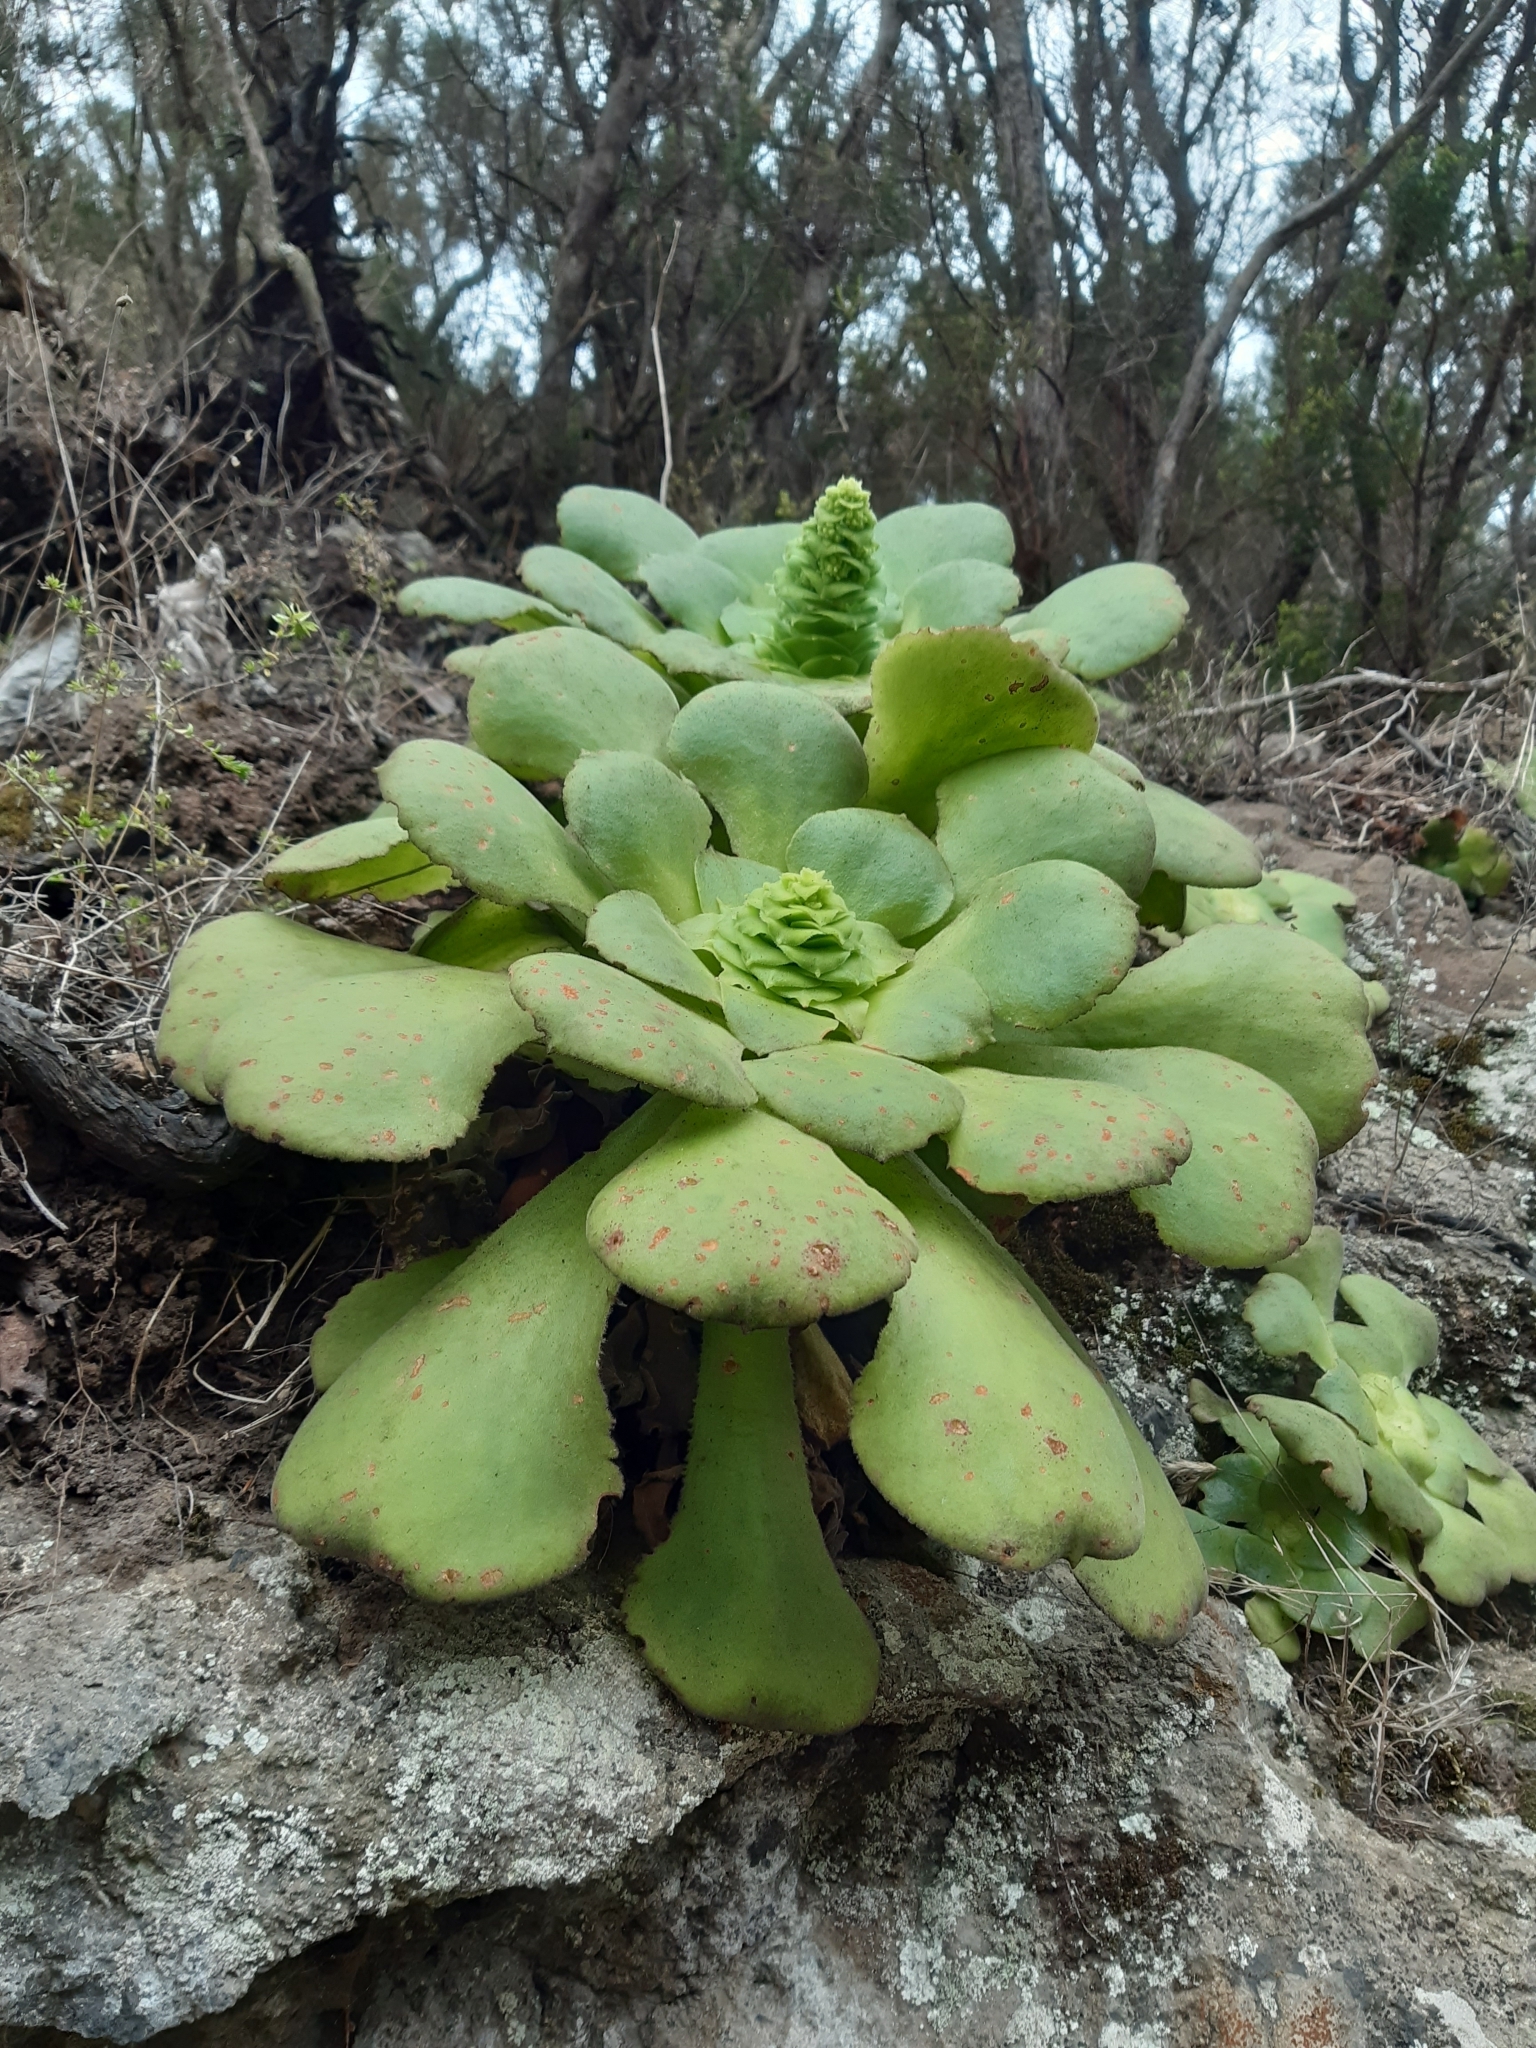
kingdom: Plantae
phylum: Tracheophyta
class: Magnoliopsida
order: Saxifragales
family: Crassulaceae
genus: Aeonium
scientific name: Aeonium canariense
